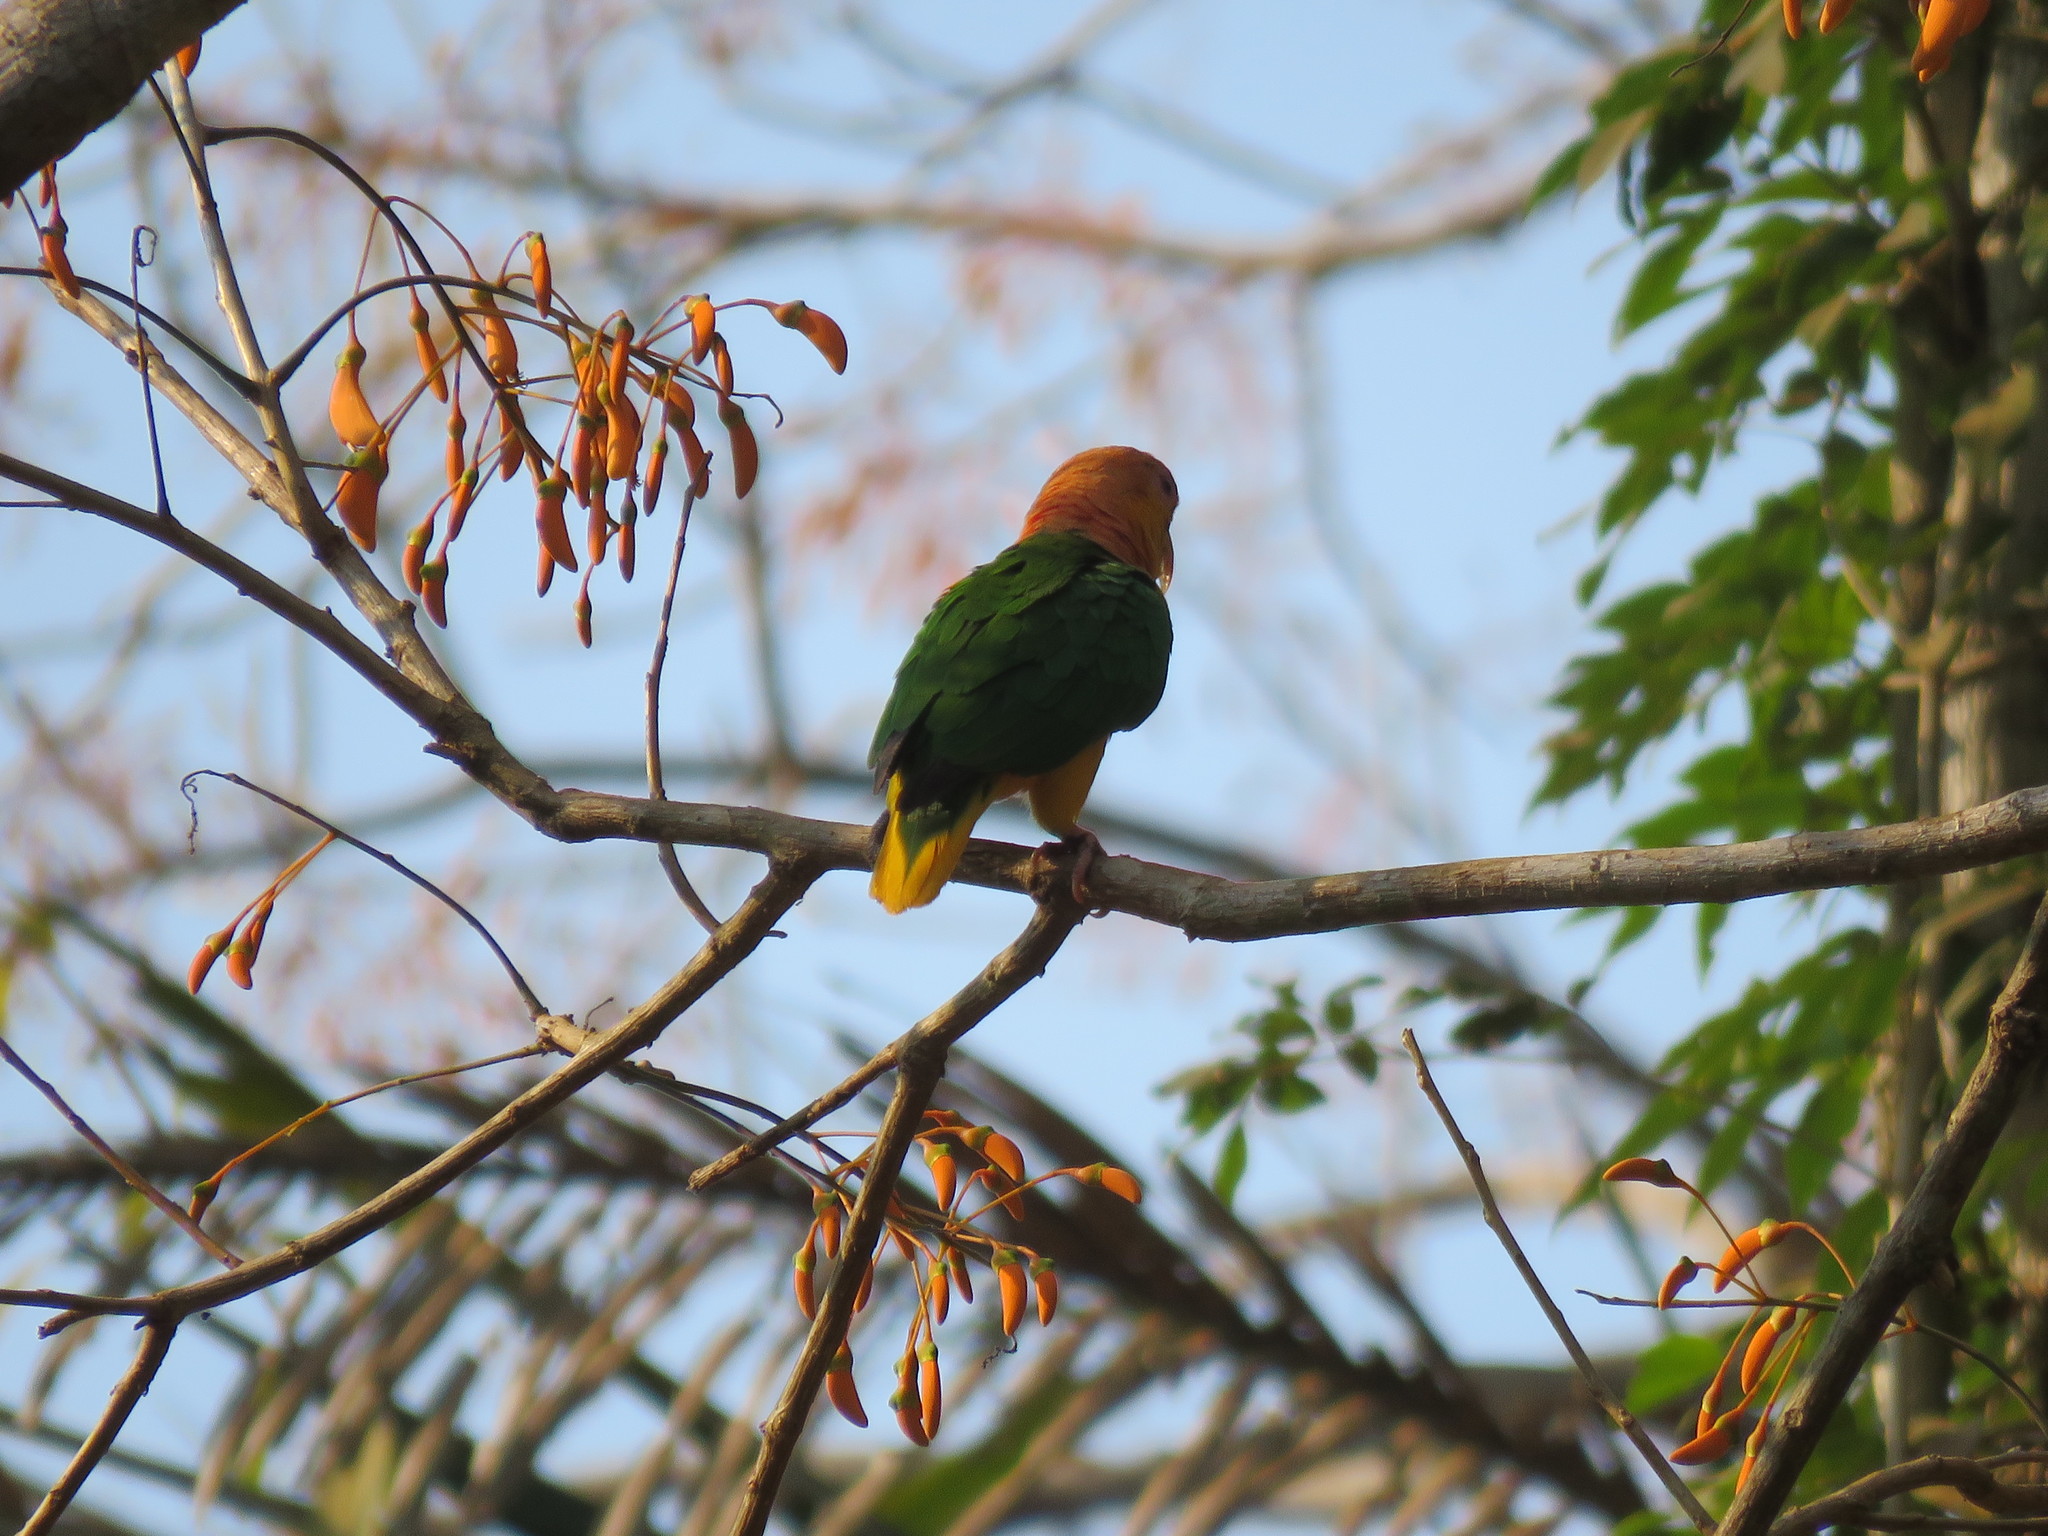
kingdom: Animalia
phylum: Chordata
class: Aves
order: Psittaciformes
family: Psittacidae
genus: Pionites
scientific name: Pionites leucogaster
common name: White-bellied parrot
